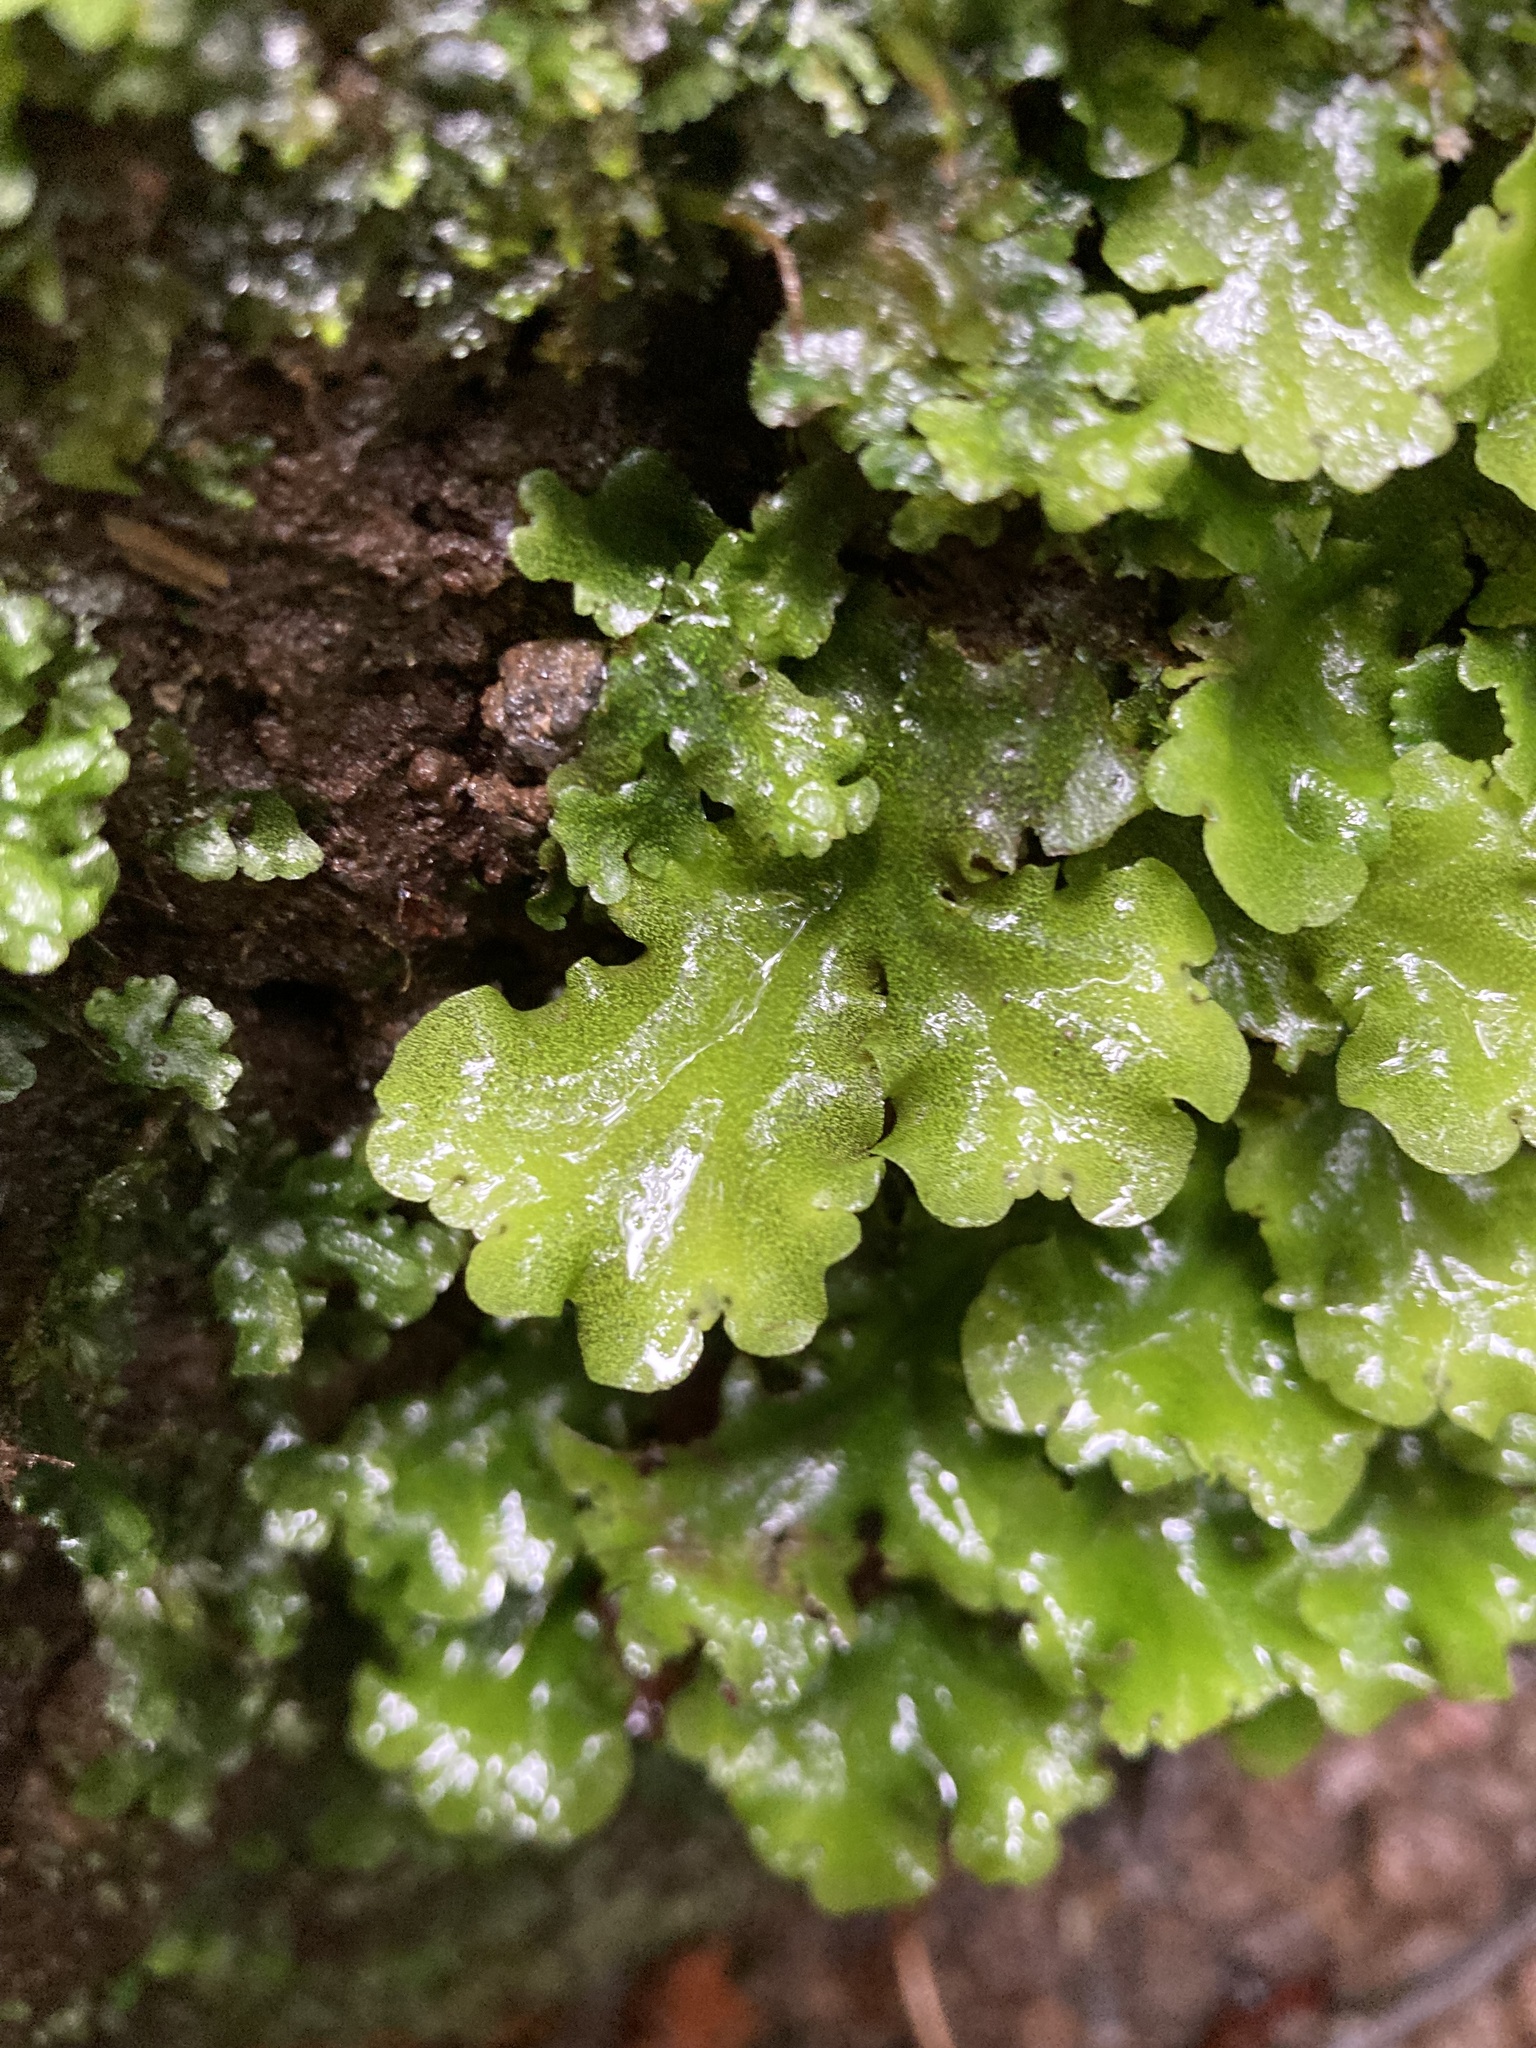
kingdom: Plantae
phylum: Marchantiophyta
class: Marchantiopsida
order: Marchantiales
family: Monocleaceae
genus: Monoclea
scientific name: Monoclea gottschei
